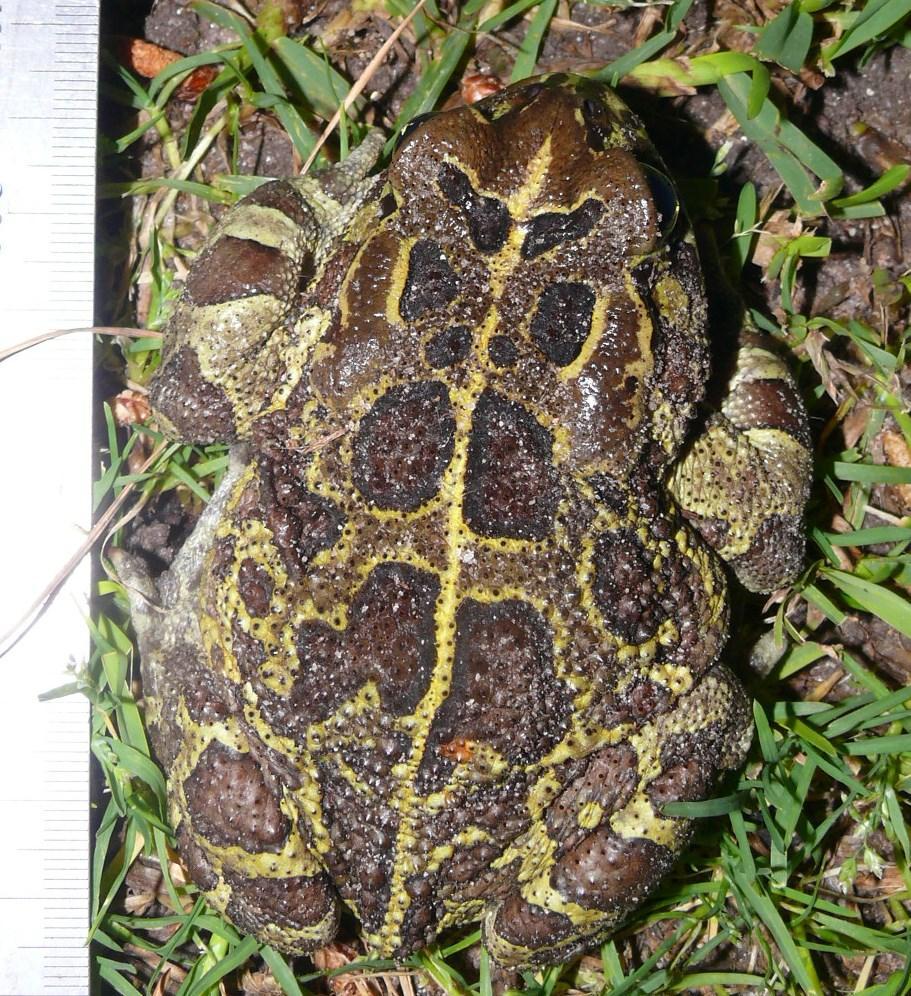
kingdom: Animalia
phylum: Chordata
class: Amphibia
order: Anura
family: Bufonidae
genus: Sclerophrys
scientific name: Sclerophrys pantherina
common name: Panther toad
